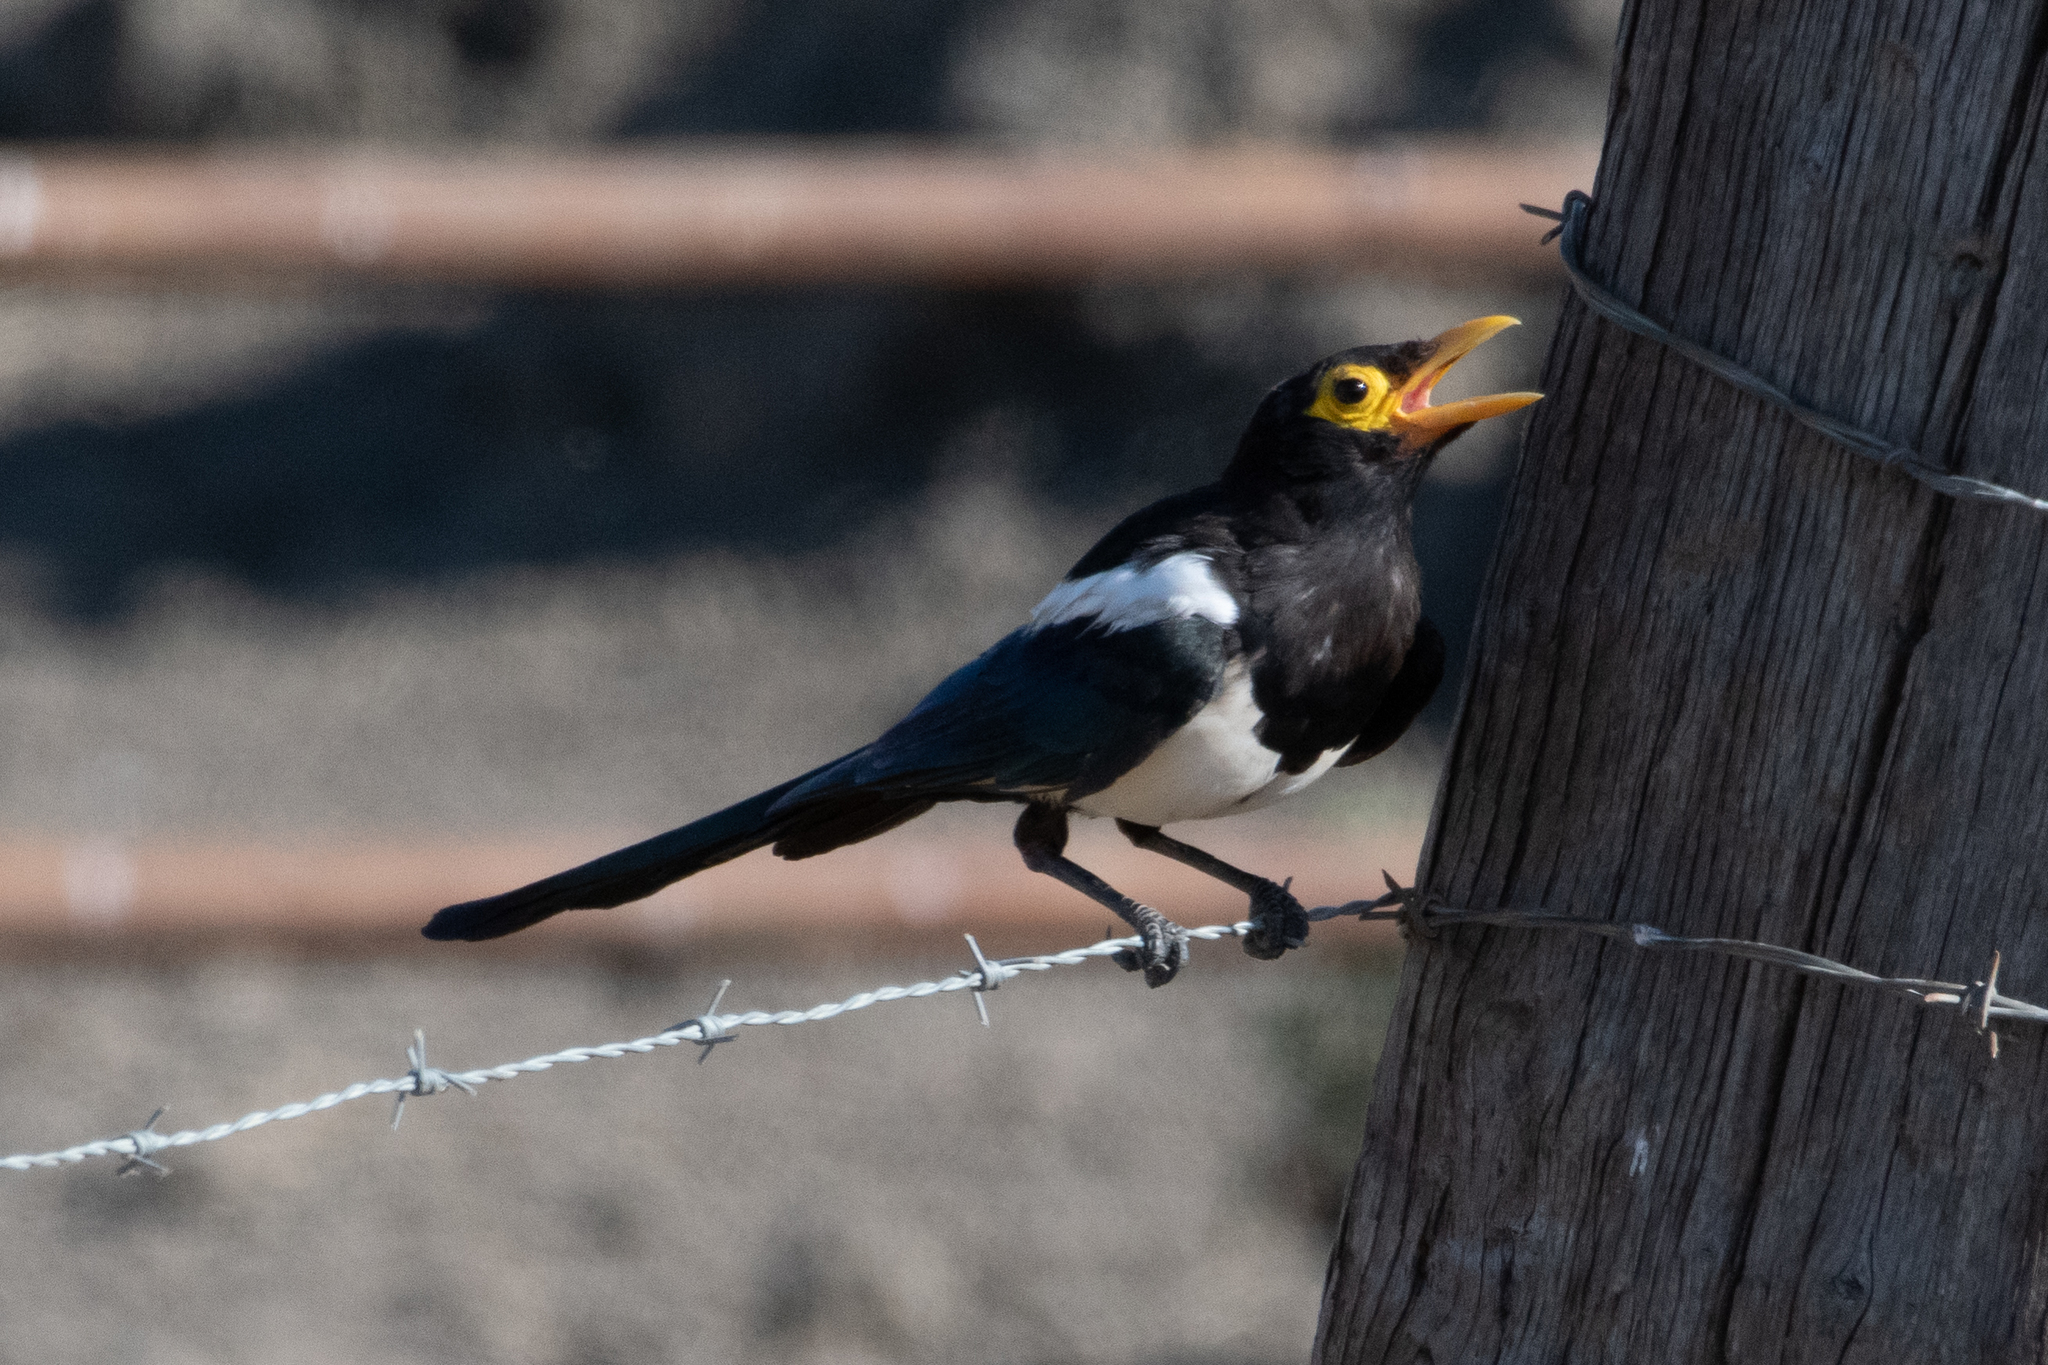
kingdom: Animalia
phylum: Chordata
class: Aves
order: Passeriformes
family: Corvidae
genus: Pica
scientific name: Pica nuttalli
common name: Yellow-billed magpie
